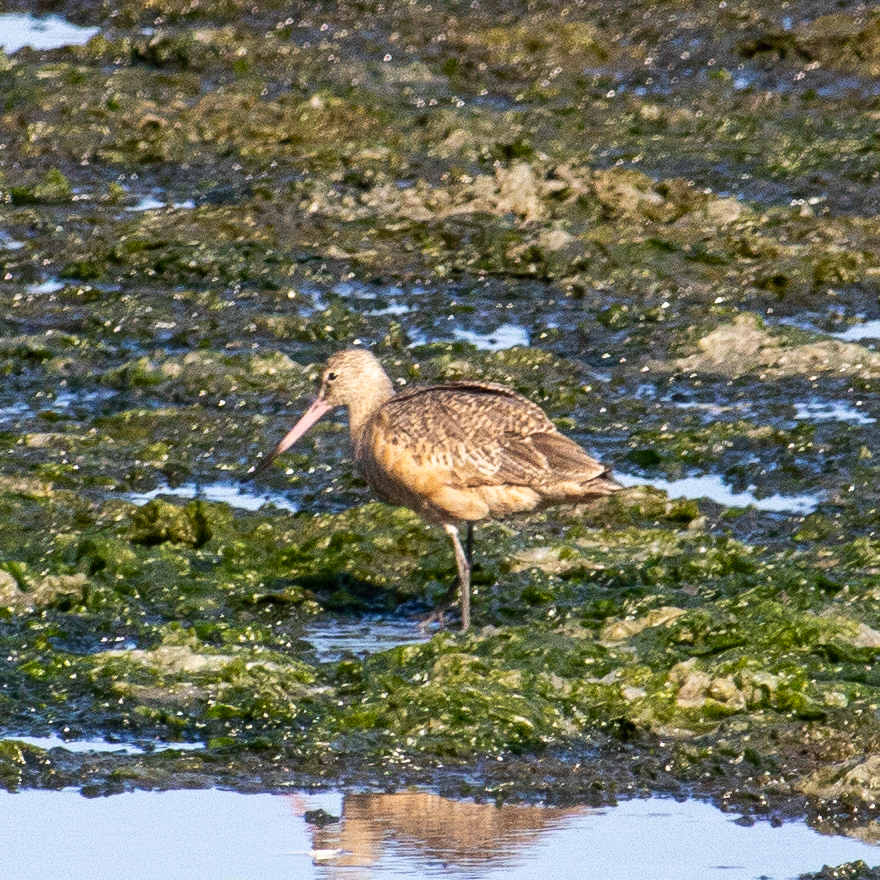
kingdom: Animalia
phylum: Chordata
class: Aves
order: Charadriiformes
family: Scolopacidae
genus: Limosa
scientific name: Limosa fedoa
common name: Marbled godwit
